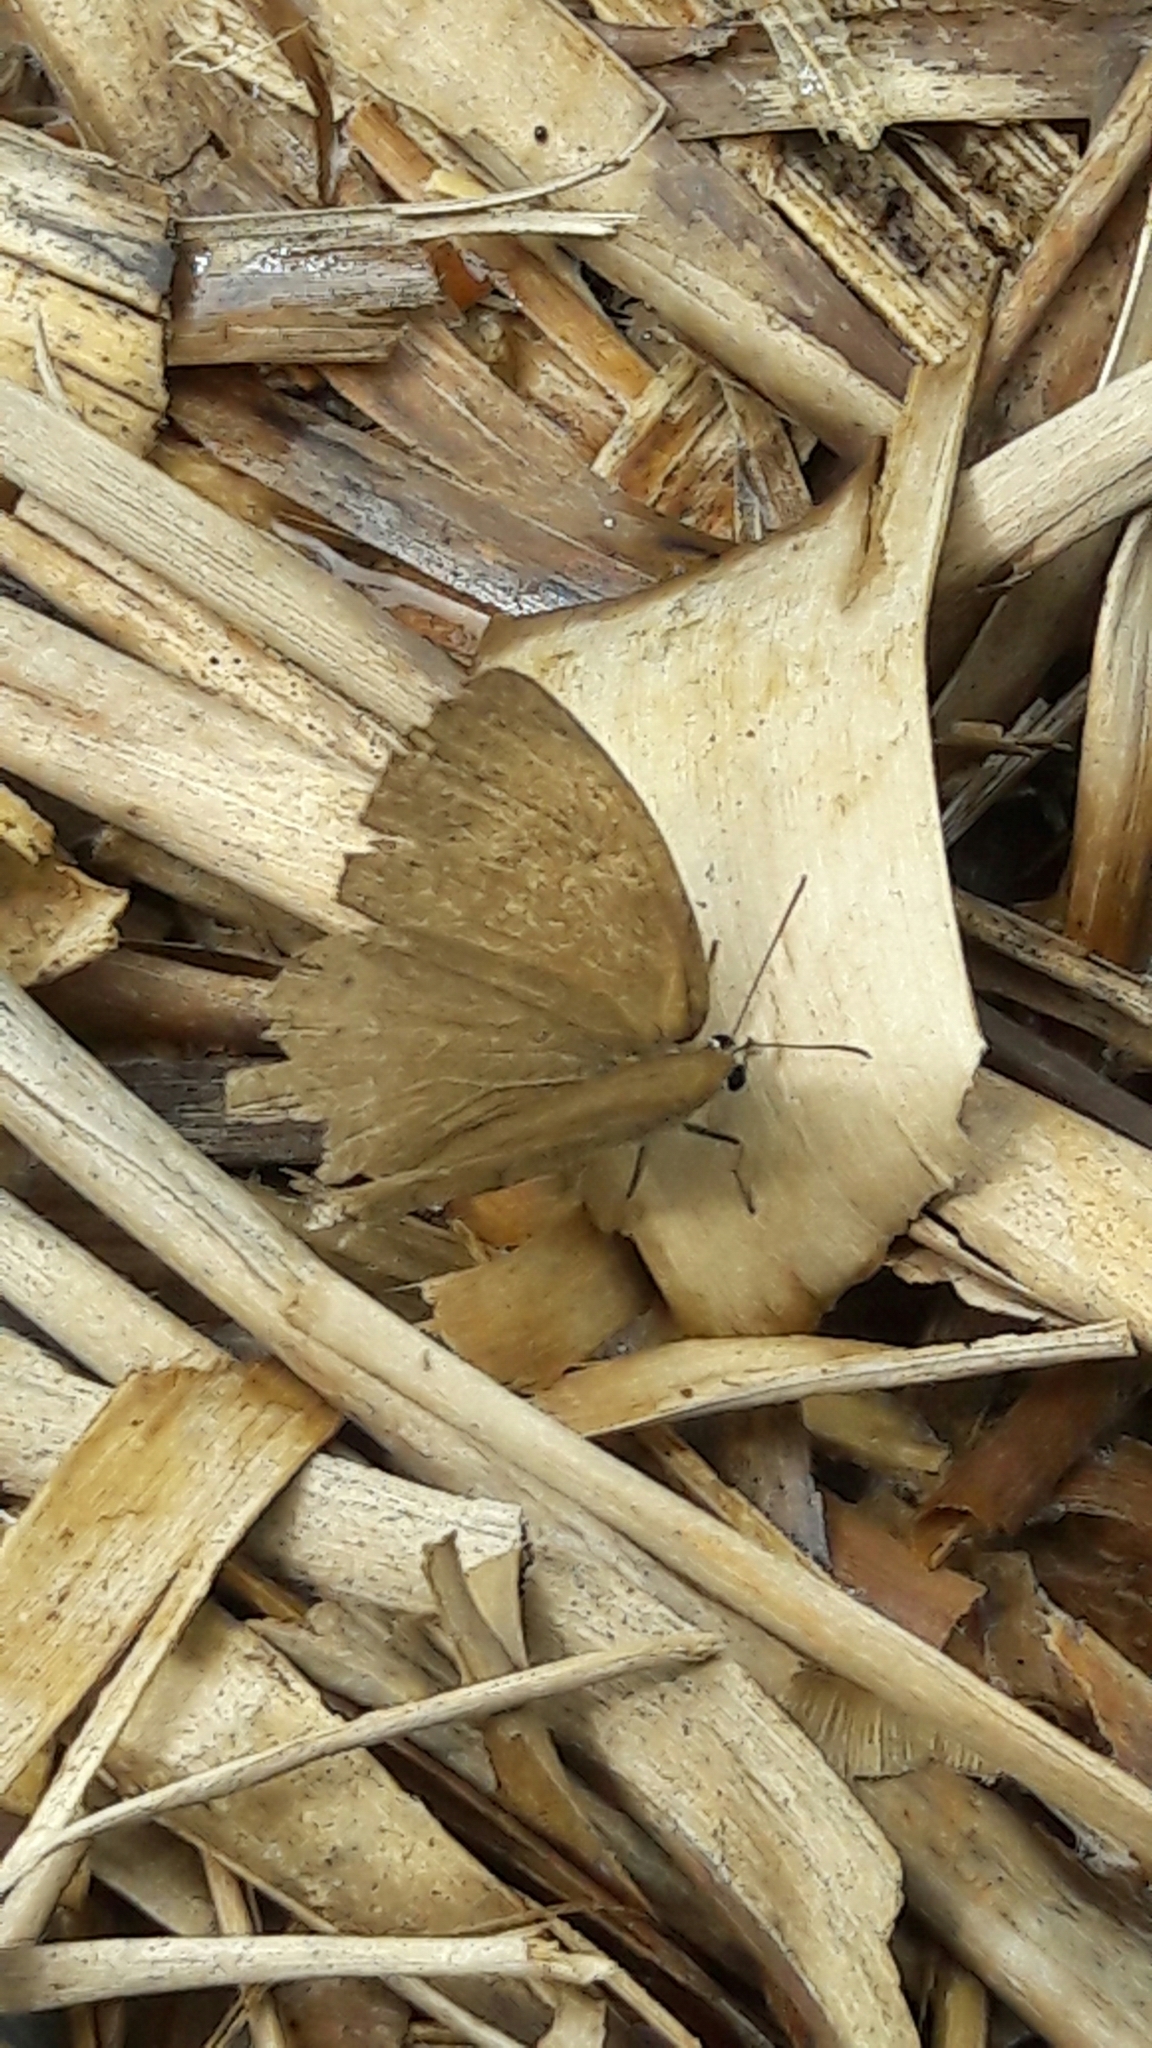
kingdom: Animalia
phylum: Arthropoda
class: Insecta
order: Lepidoptera
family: Nymphalidae
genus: Euptychia
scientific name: Euptychia Cissia eous
